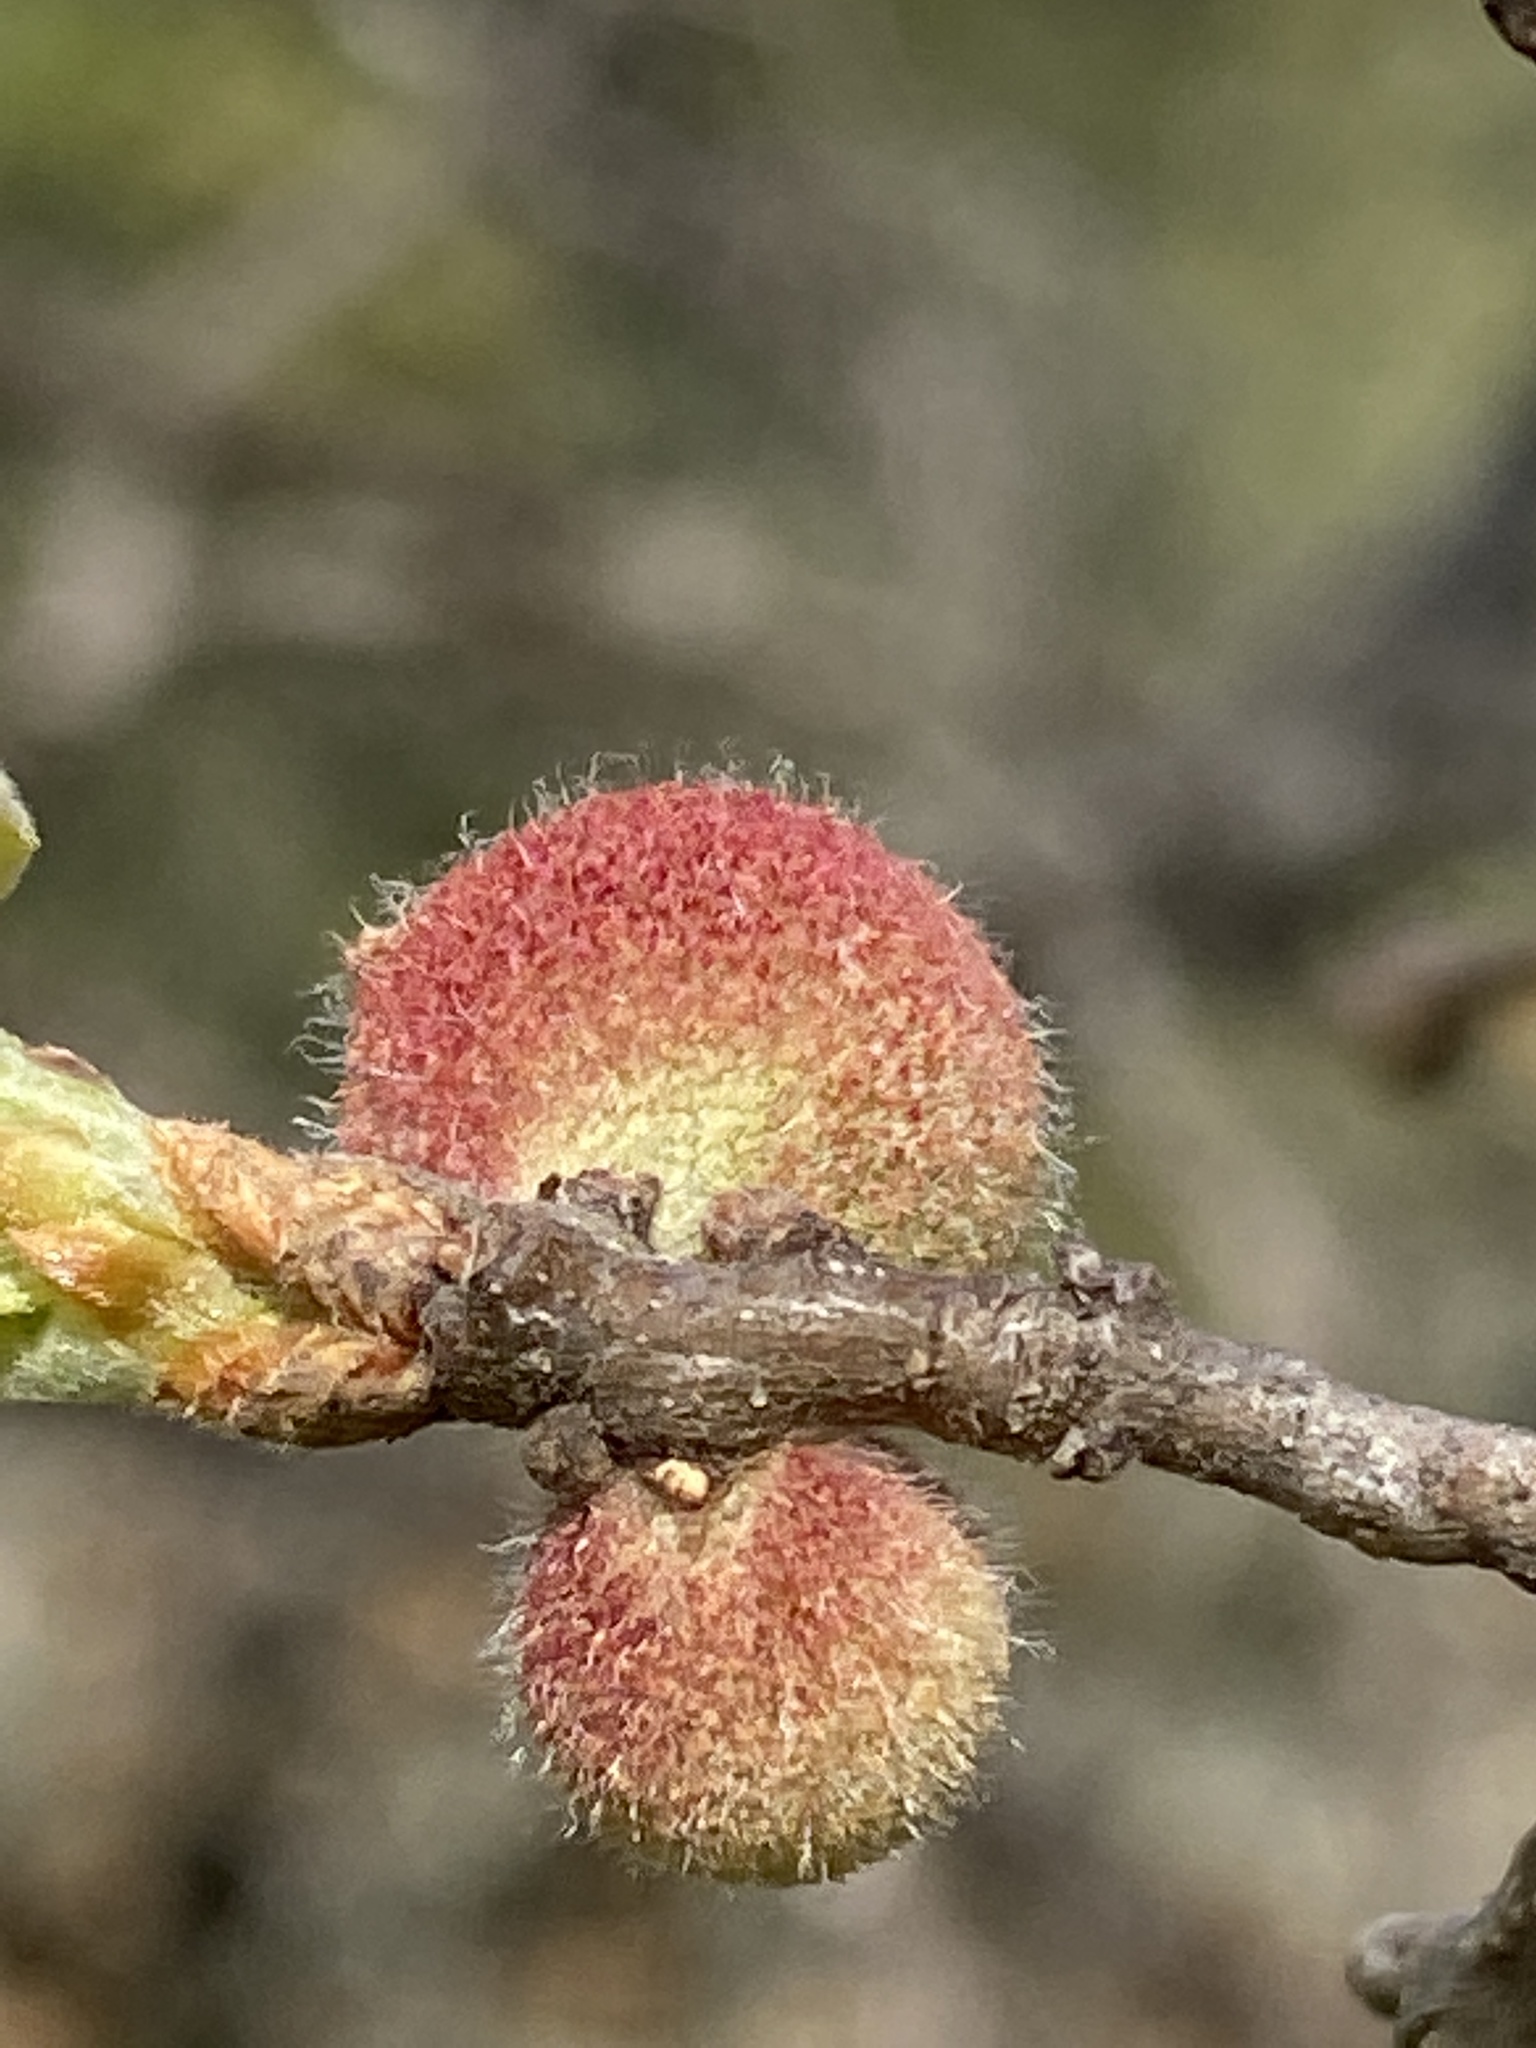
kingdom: Animalia
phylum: Arthropoda
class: Insecta
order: Hymenoptera
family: Cynipidae
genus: Burnettweldia
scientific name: Burnettweldia
